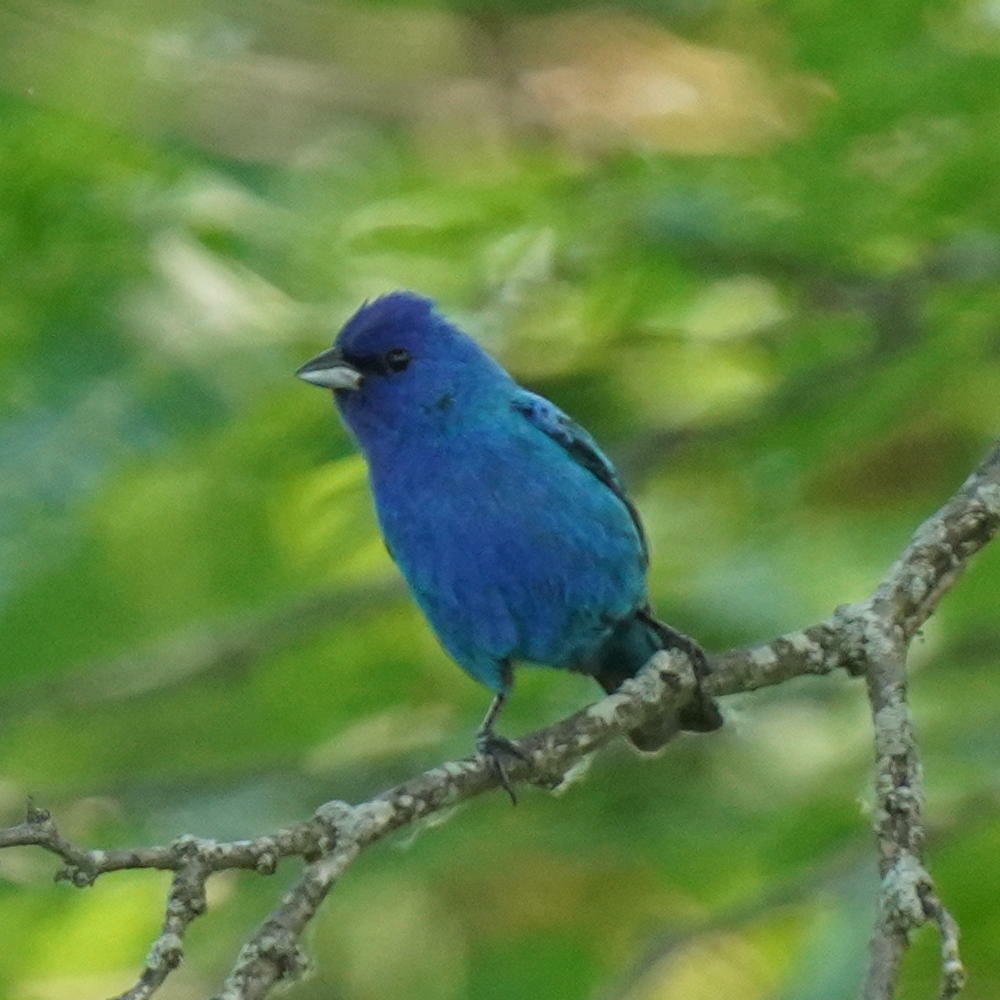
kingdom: Animalia
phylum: Chordata
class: Aves
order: Passeriformes
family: Cardinalidae
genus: Passerina
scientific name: Passerina cyanea
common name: Indigo bunting
